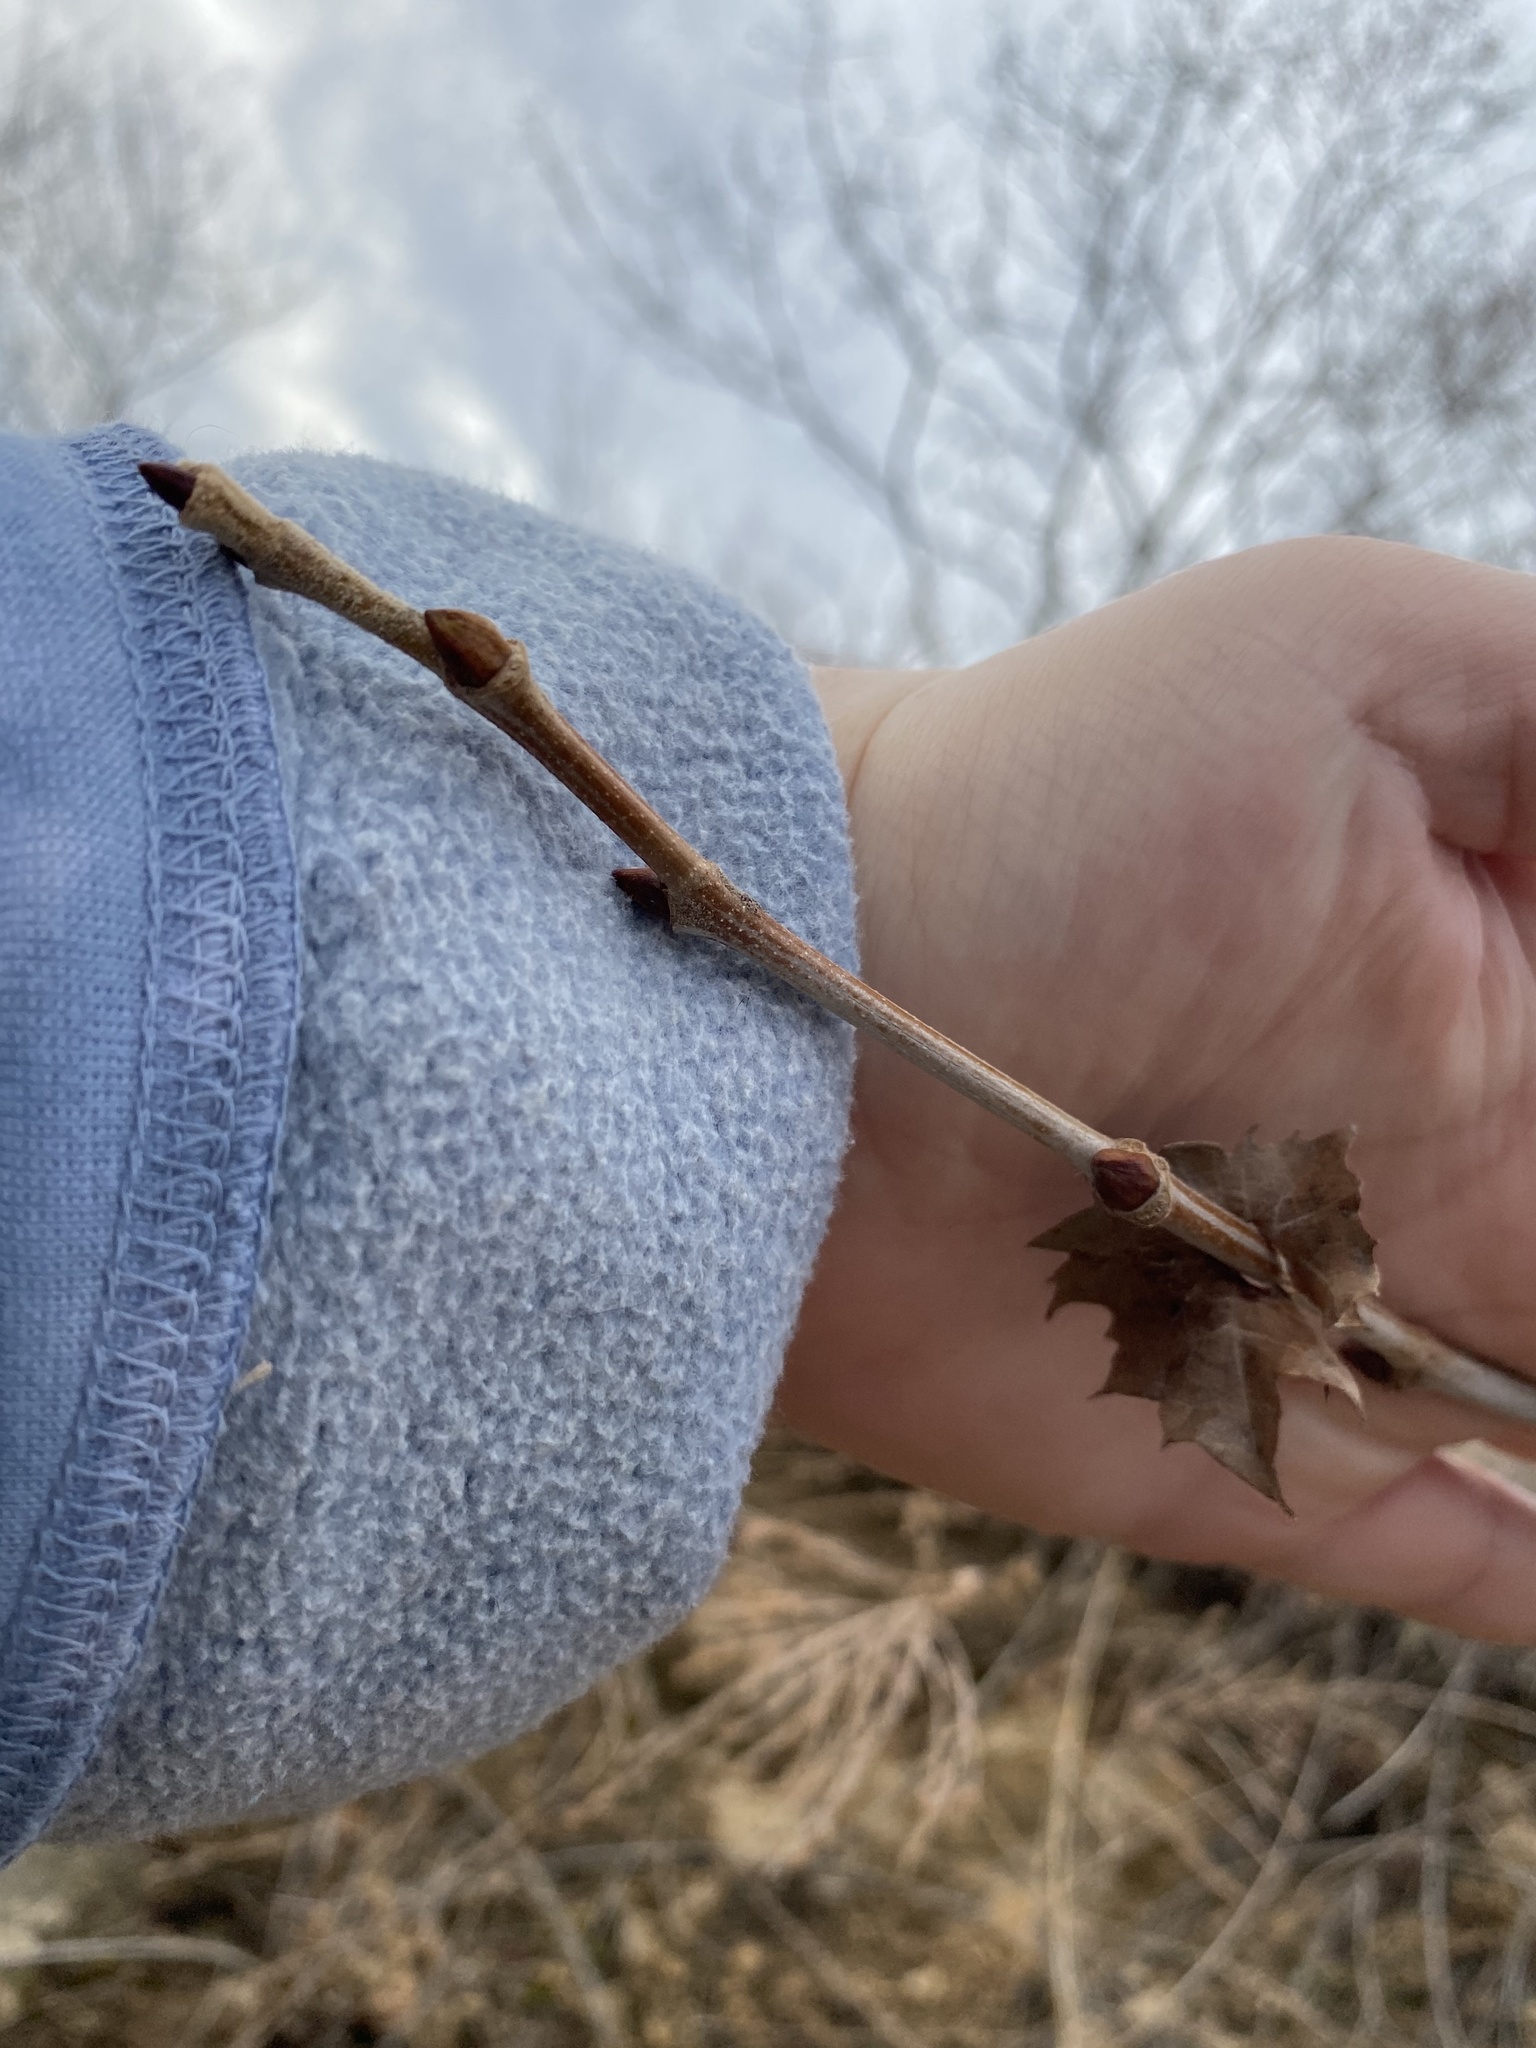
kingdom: Plantae
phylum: Tracheophyta
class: Magnoliopsida
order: Proteales
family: Platanaceae
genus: Platanus
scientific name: Platanus occidentalis
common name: American sycamore
